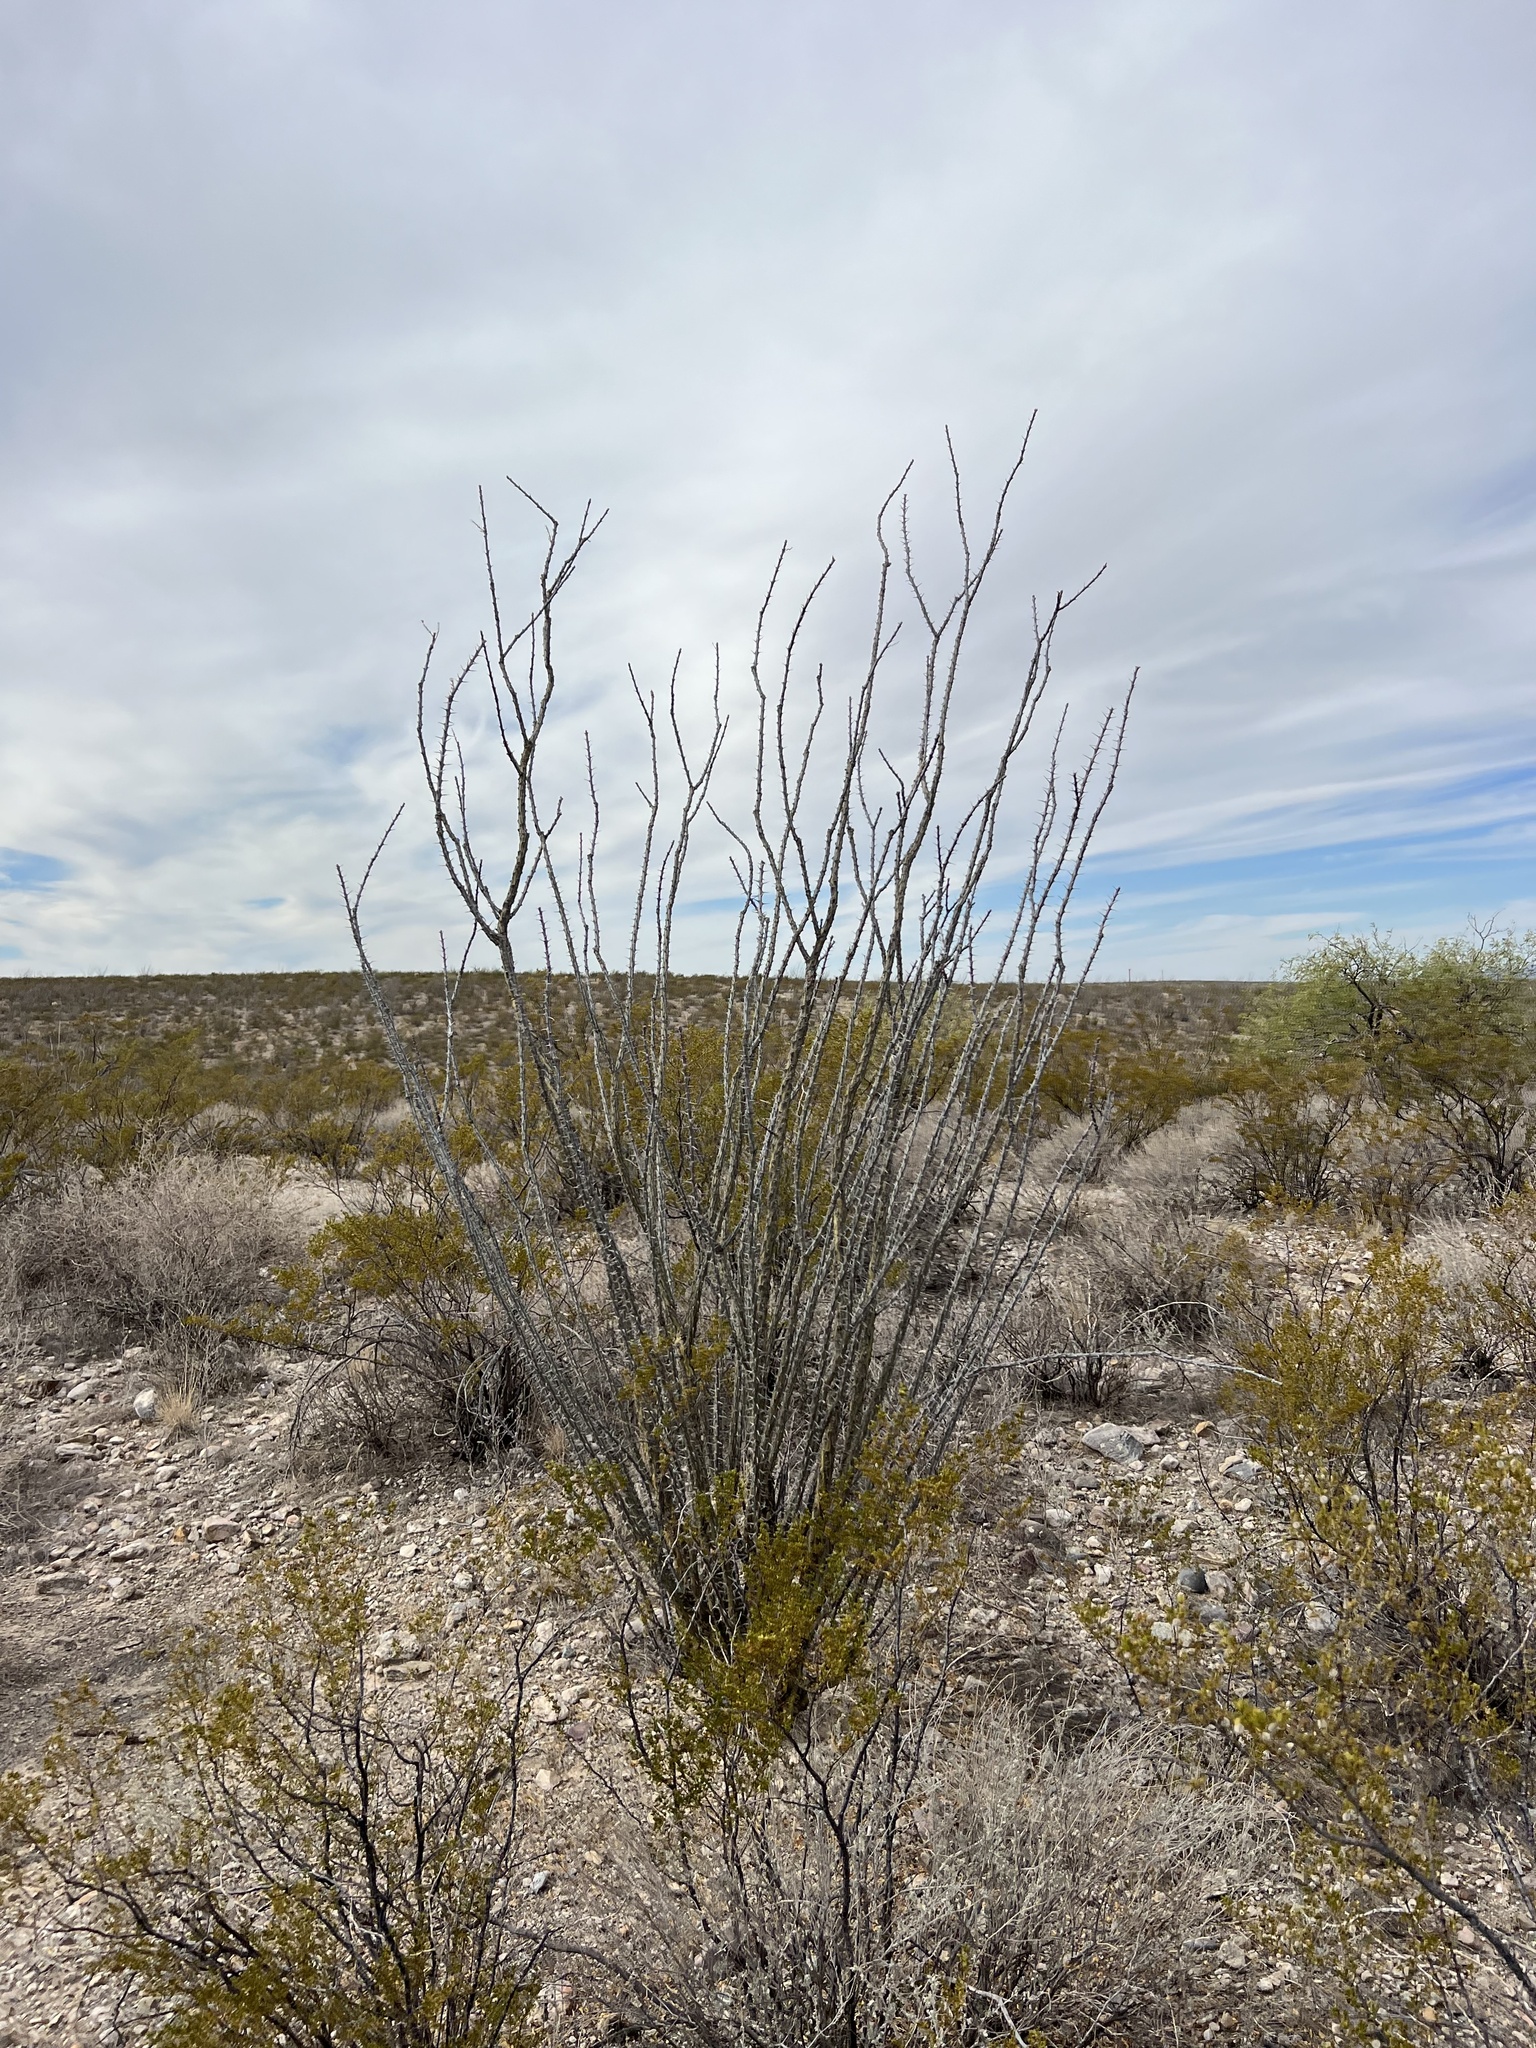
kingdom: Plantae
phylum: Tracheophyta
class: Magnoliopsida
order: Ericales
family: Fouquieriaceae
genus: Fouquieria
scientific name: Fouquieria splendens
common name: Vine-cactus
